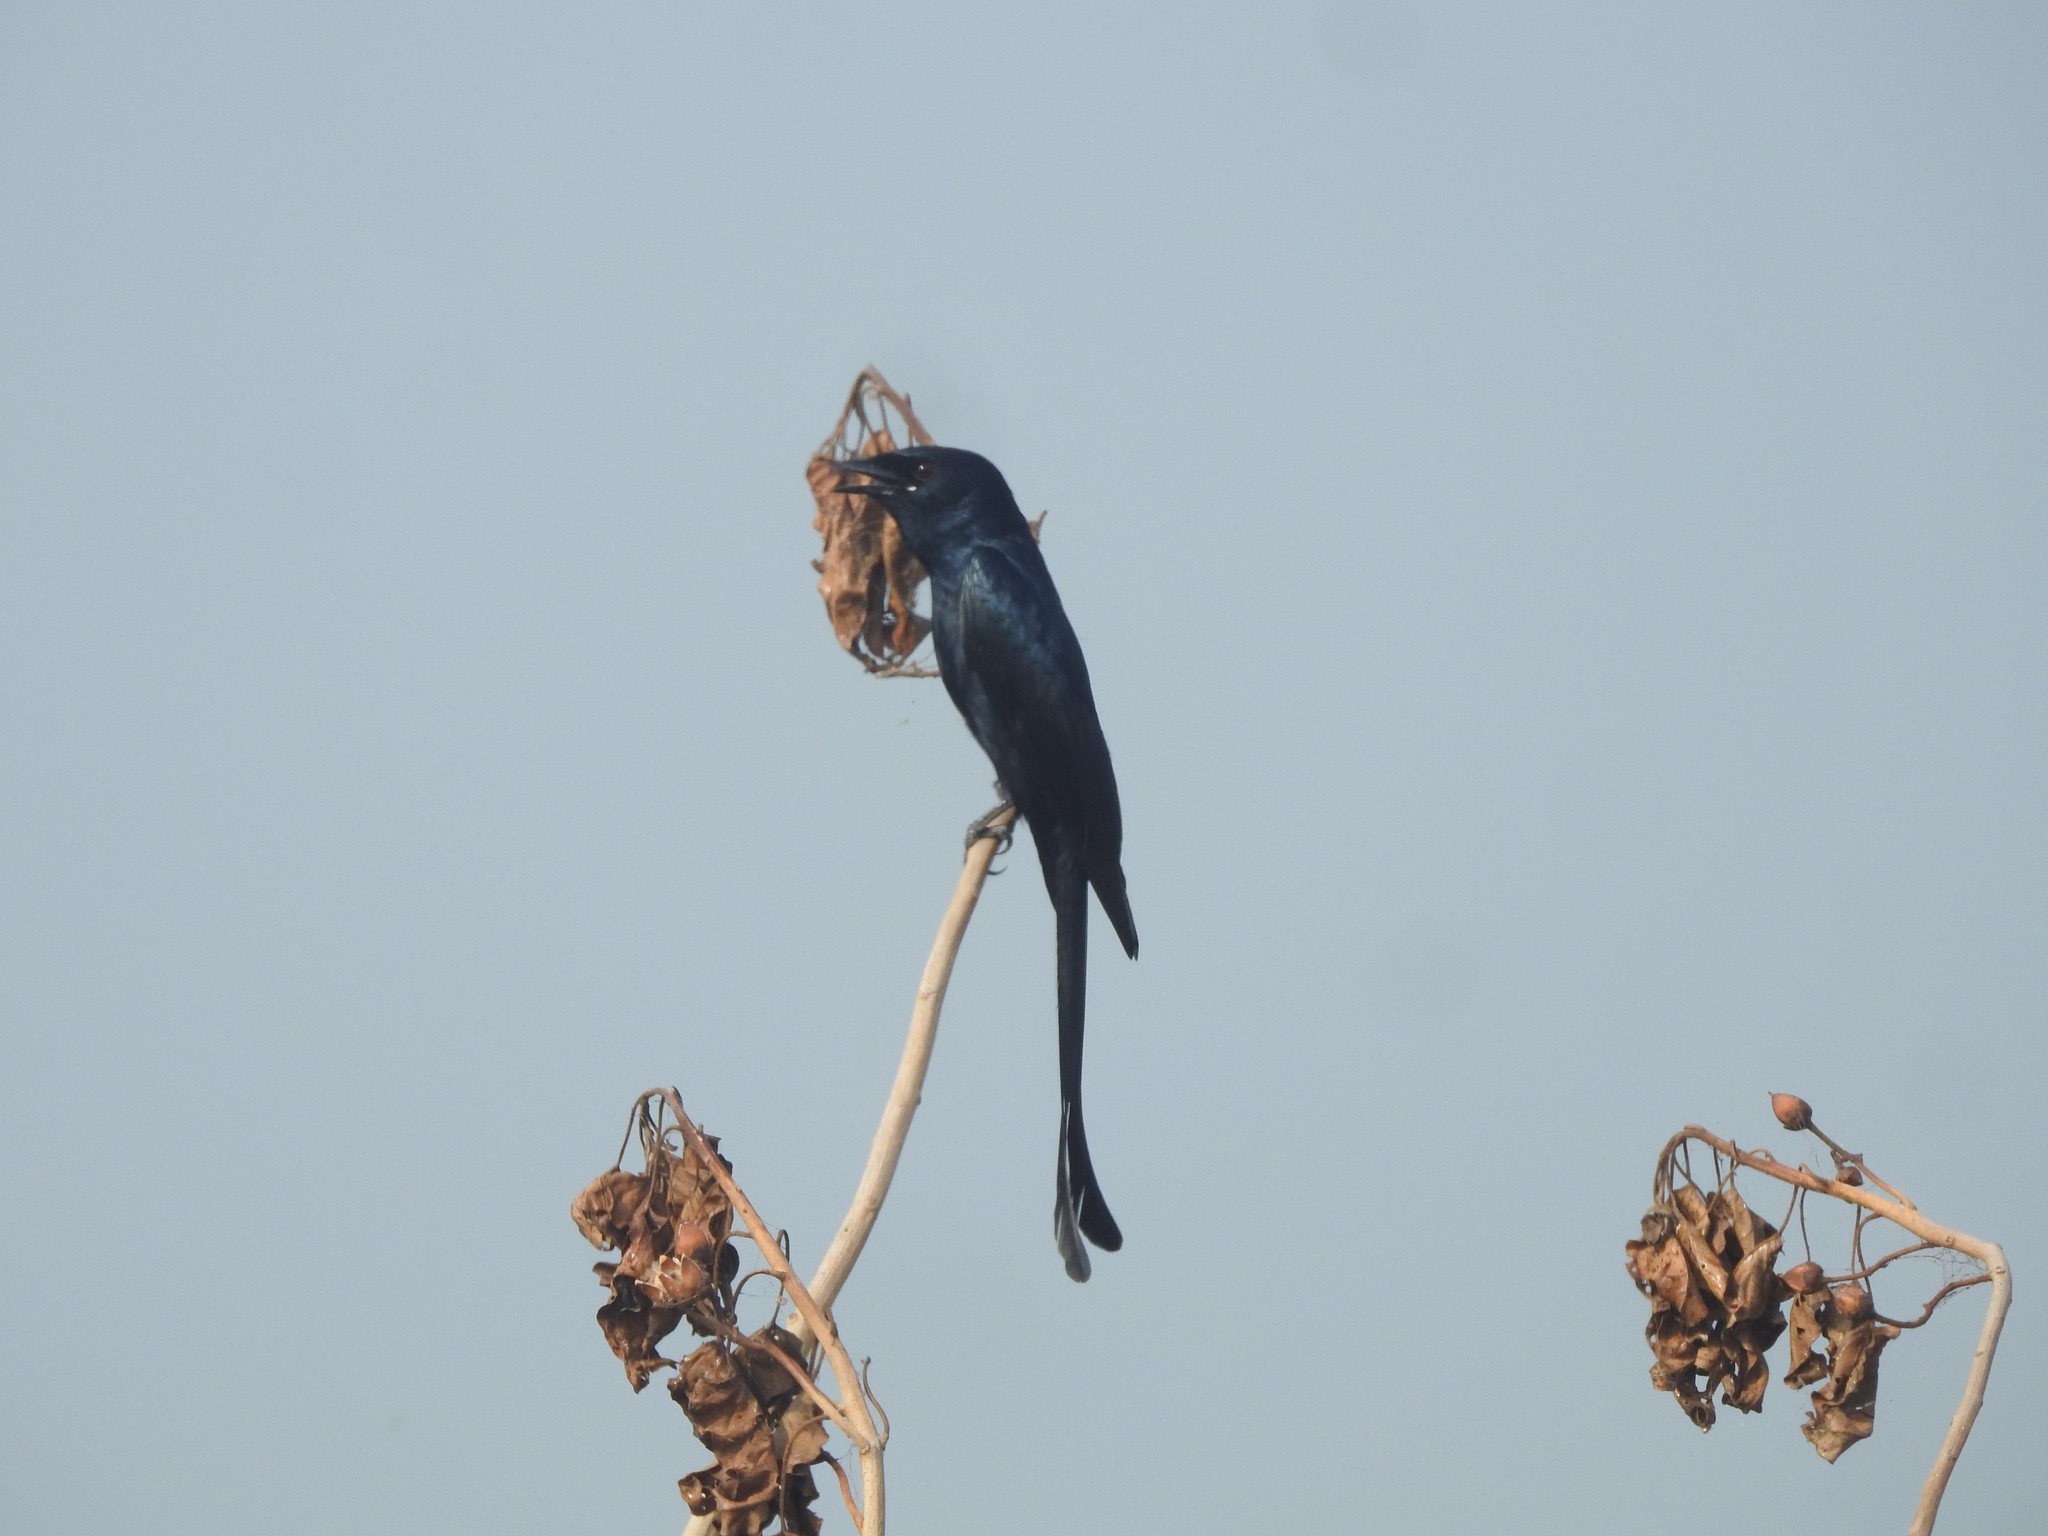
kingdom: Animalia
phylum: Chordata
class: Aves
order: Passeriformes
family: Dicruridae
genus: Dicrurus
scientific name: Dicrurus macrocercus
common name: Black drongo
